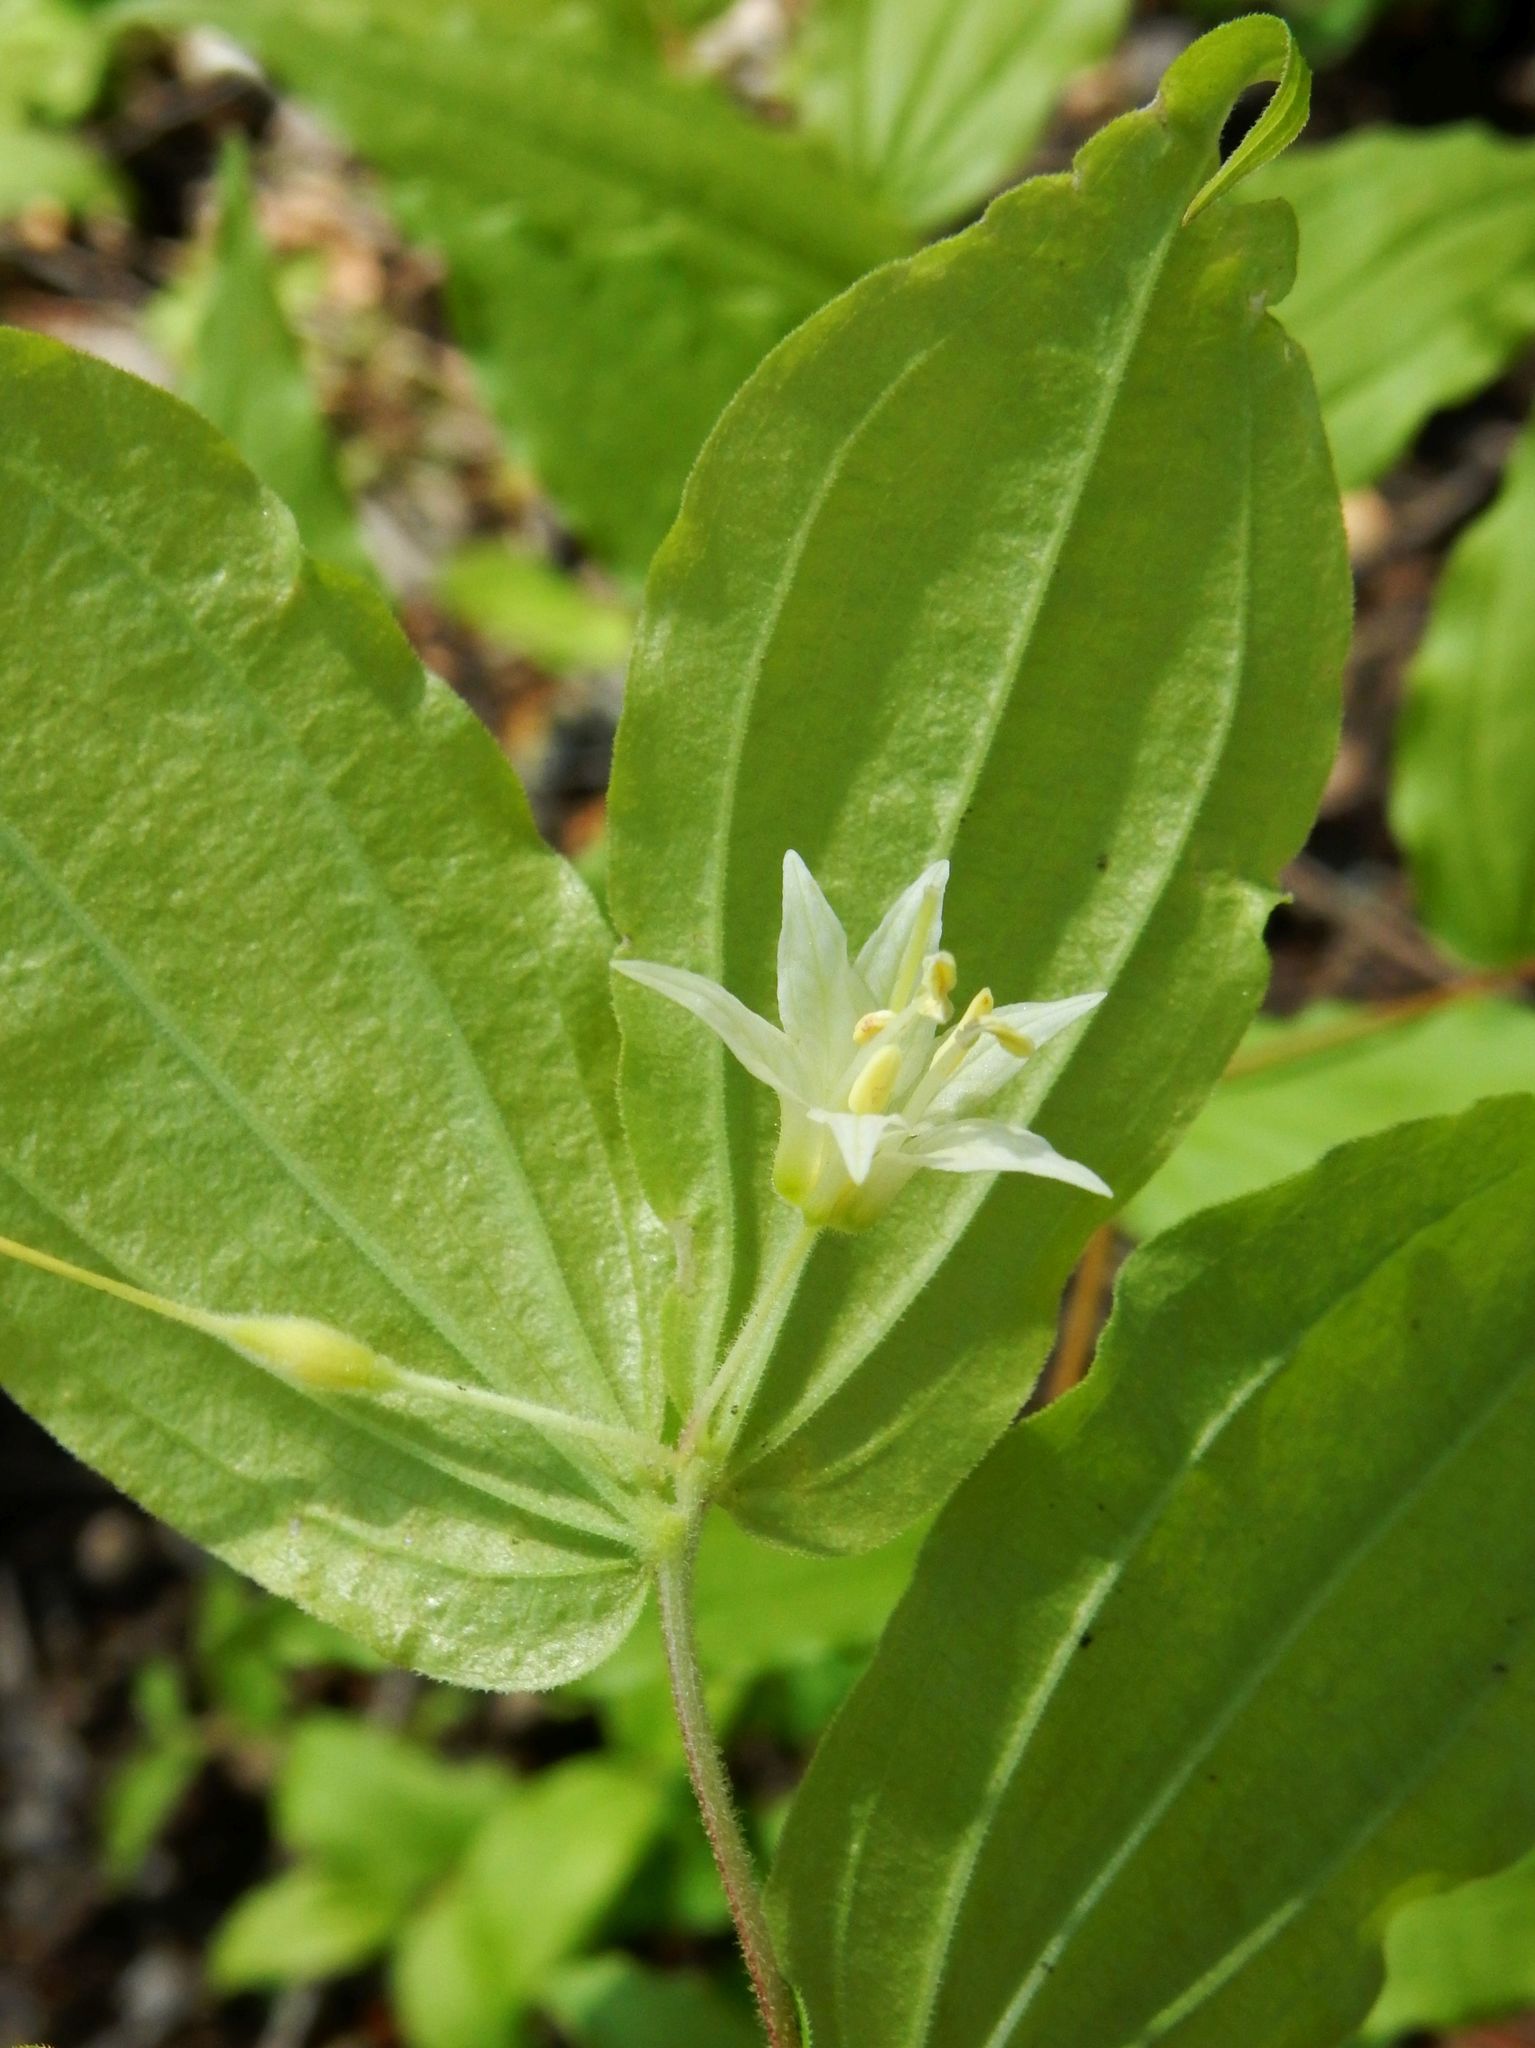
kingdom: Plantae
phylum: Tracheophyta
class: Liliopsida
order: Liliales
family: Liliaceae
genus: Prosartes
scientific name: Prosartes hookeri
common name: Fairy-bells
